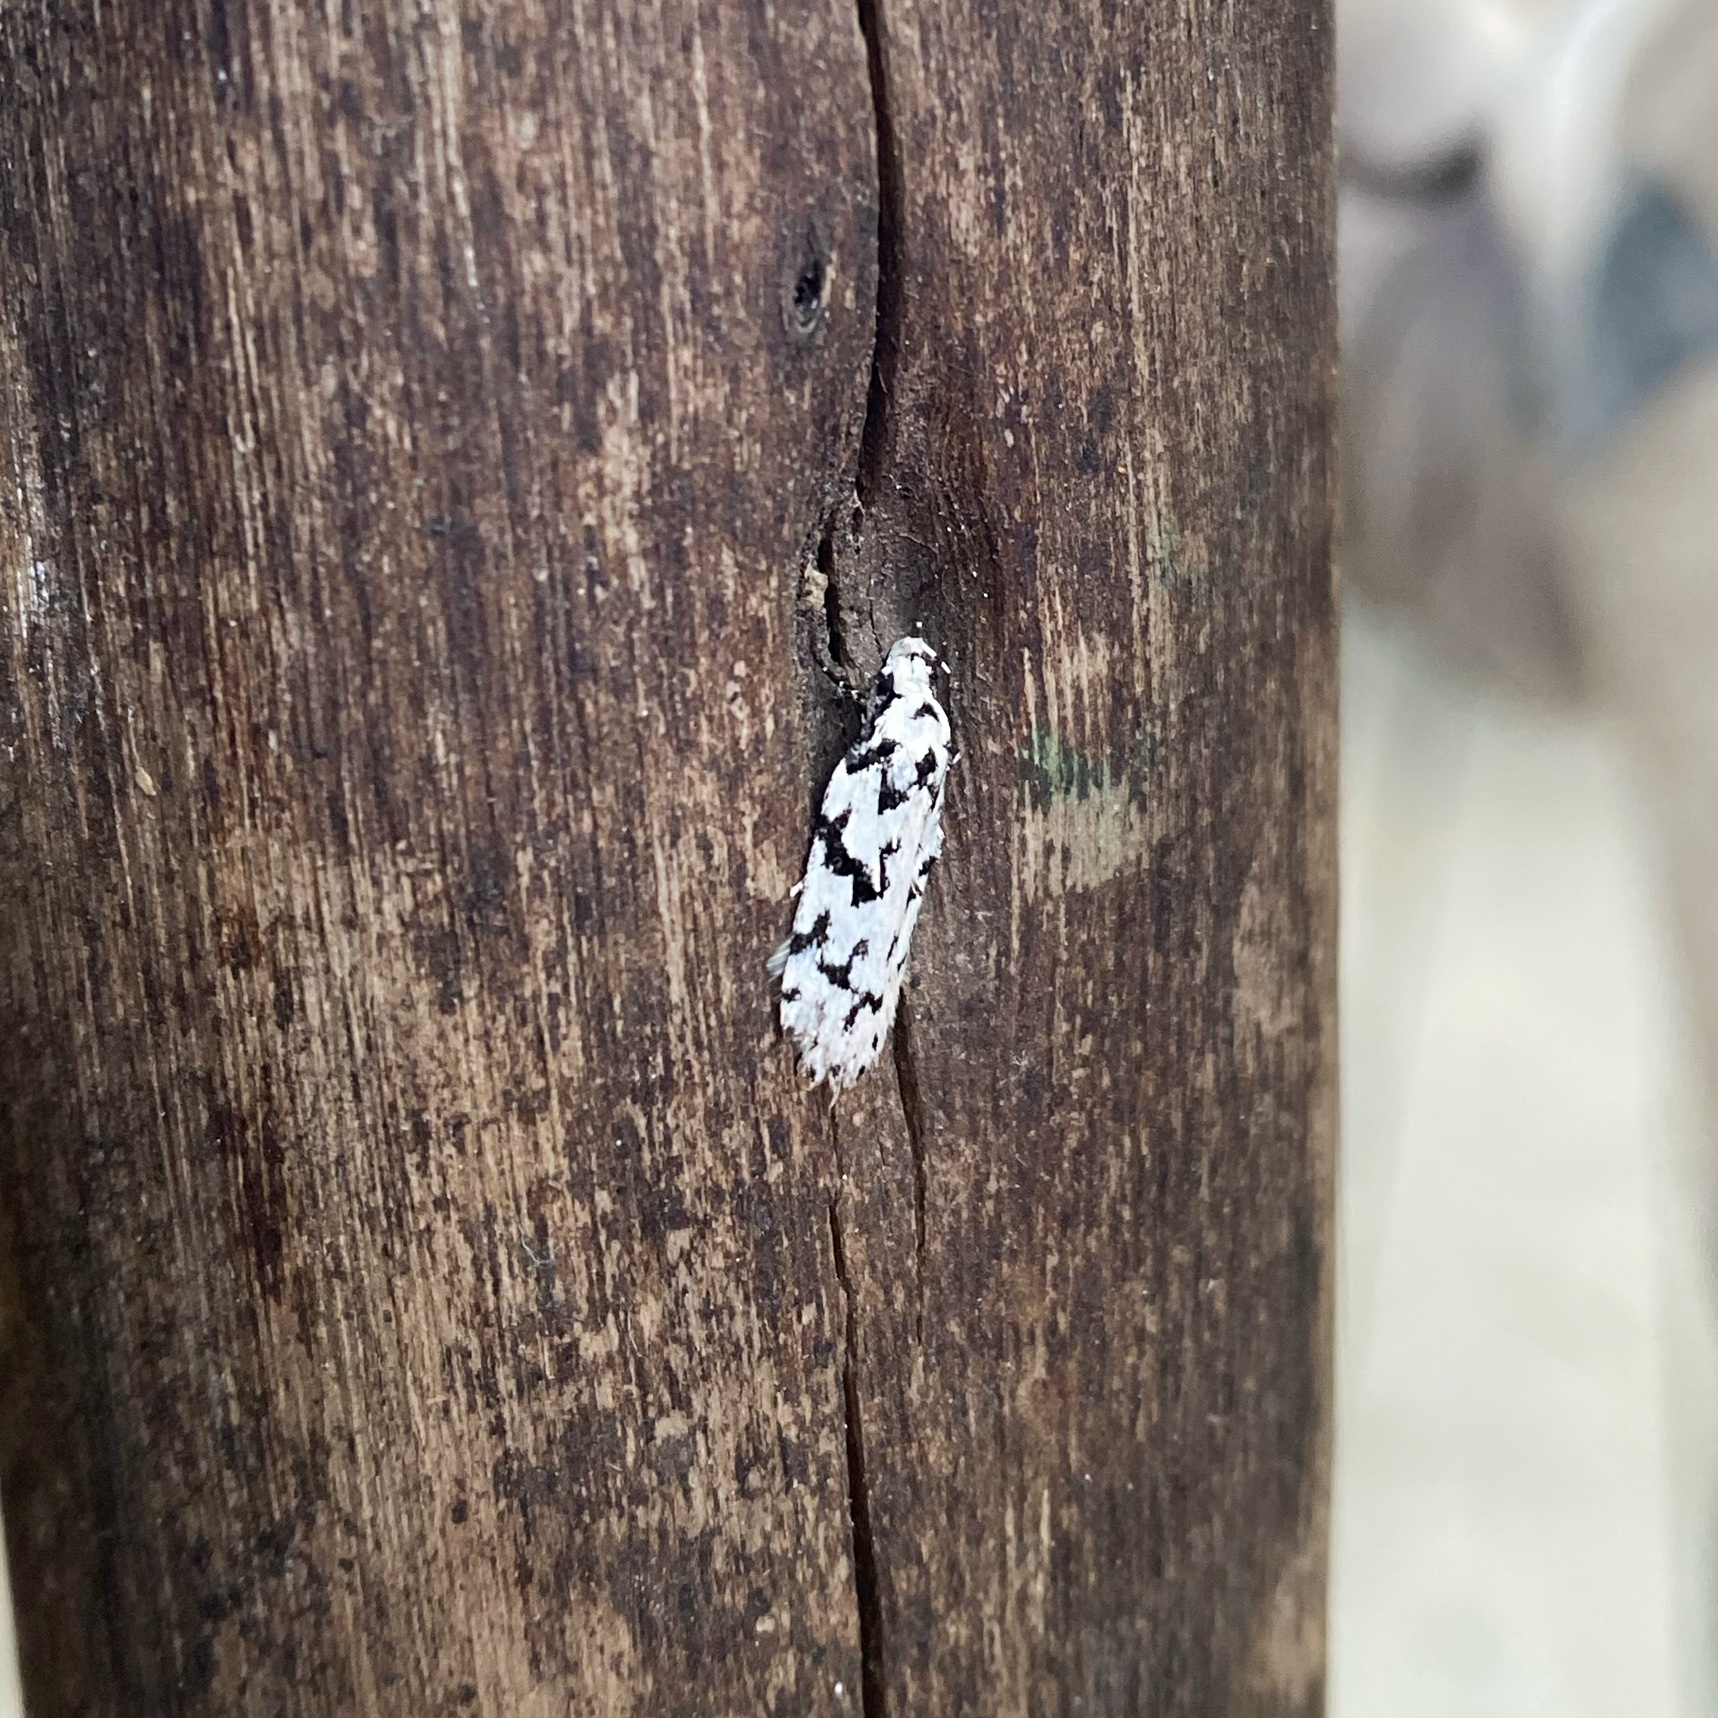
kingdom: Animalia
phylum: Arthropoda
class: Insecta
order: Lepidoptera
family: Oecophoridae
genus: Izatha
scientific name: Izatha katadiktya
